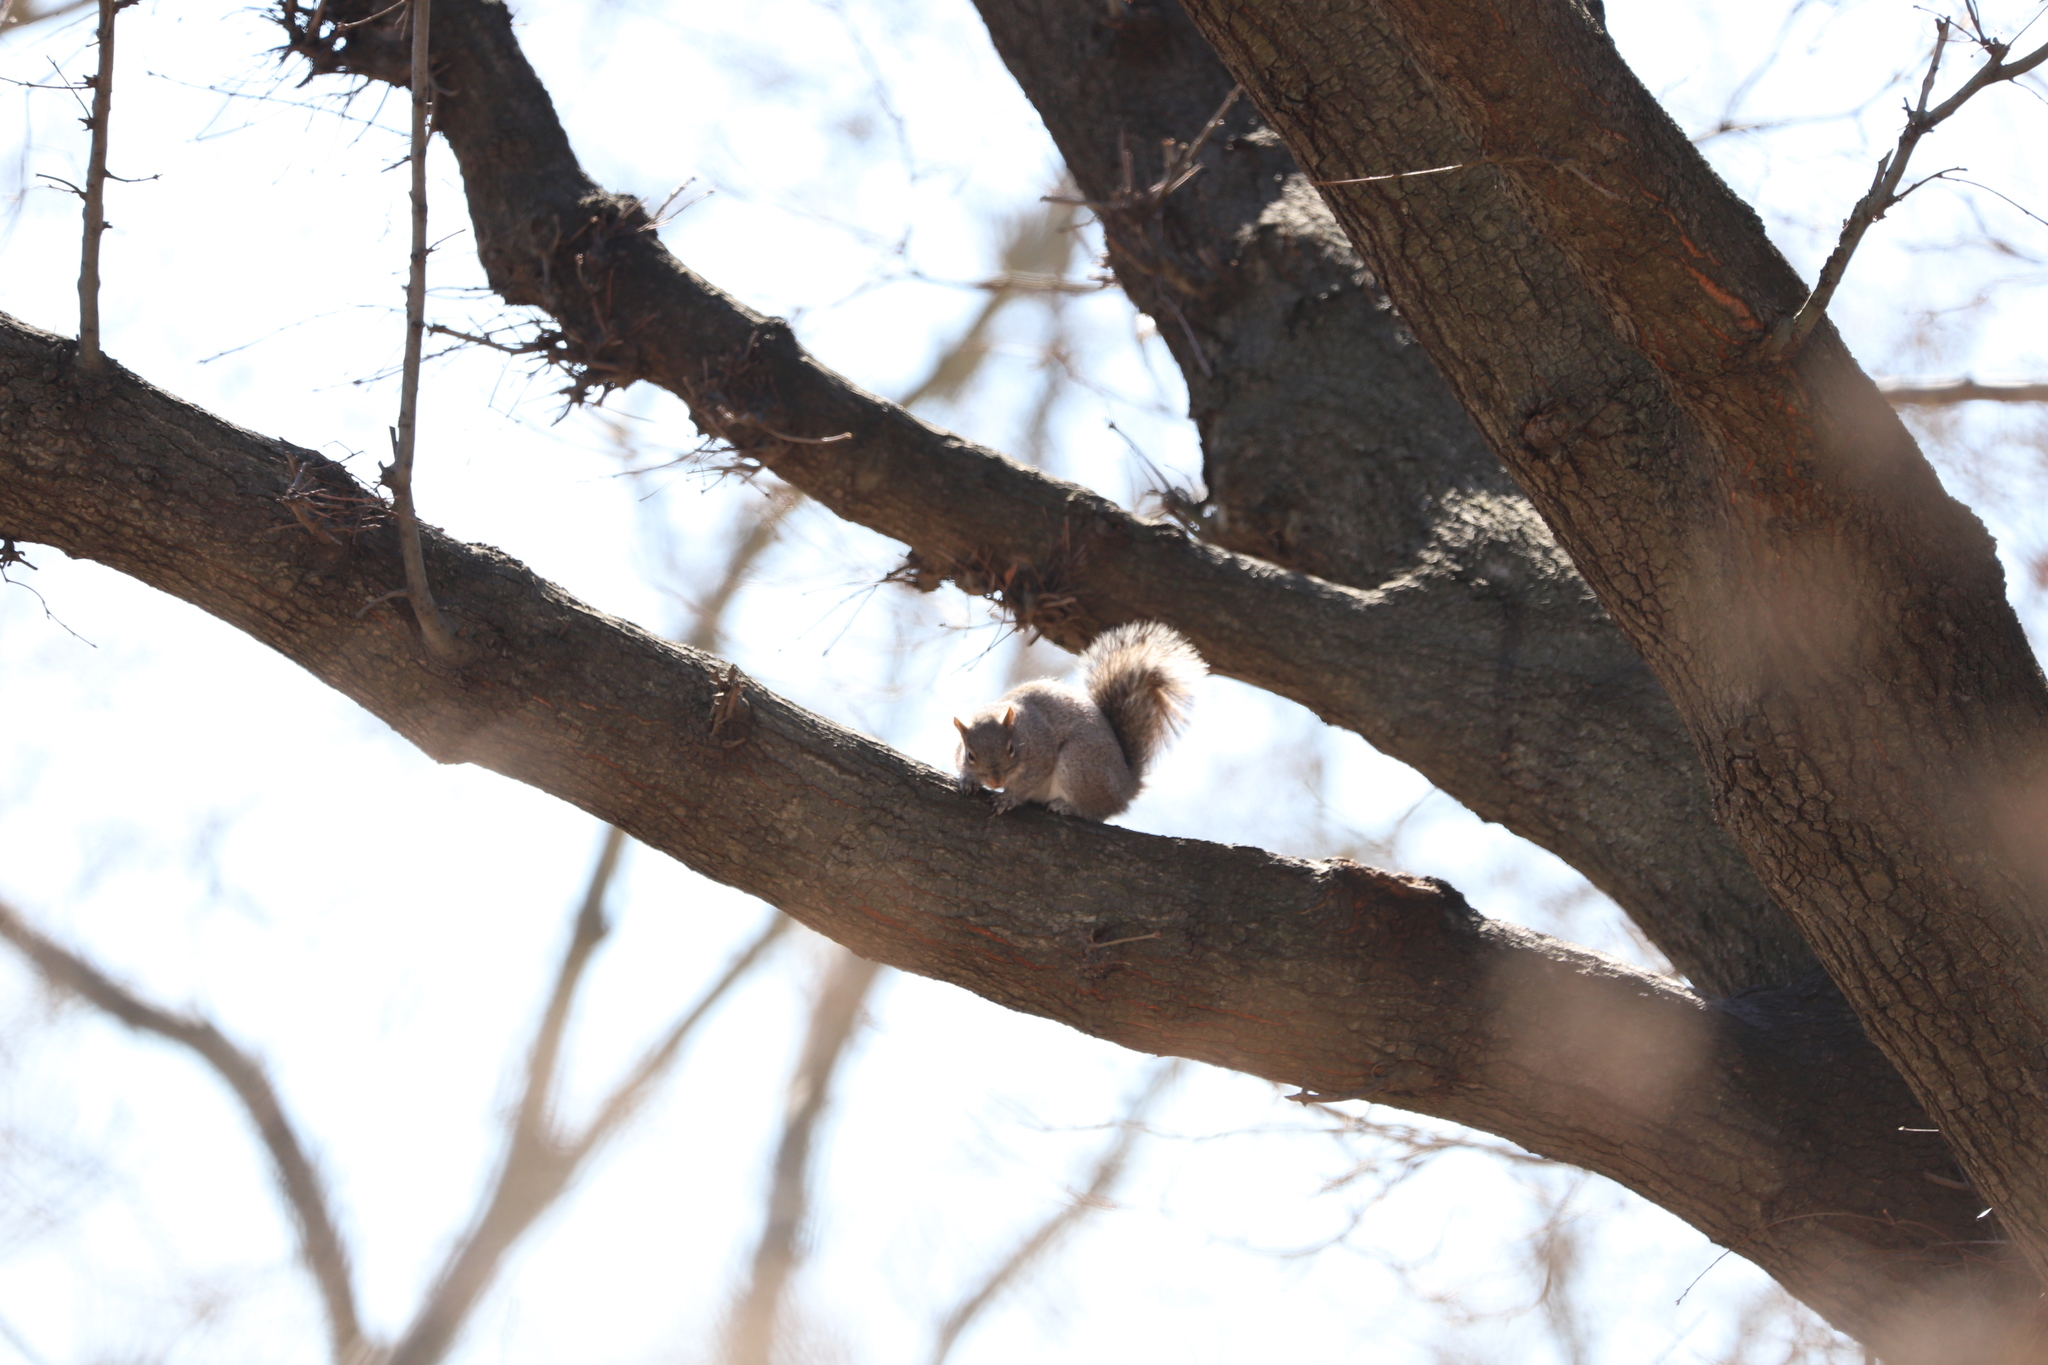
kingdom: Animalia
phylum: Chordata
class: Mammalia
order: Rodentia
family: Sciuridae
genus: Sciurus
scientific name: Sciurus carolinensis
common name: Eastern gray squirrel
